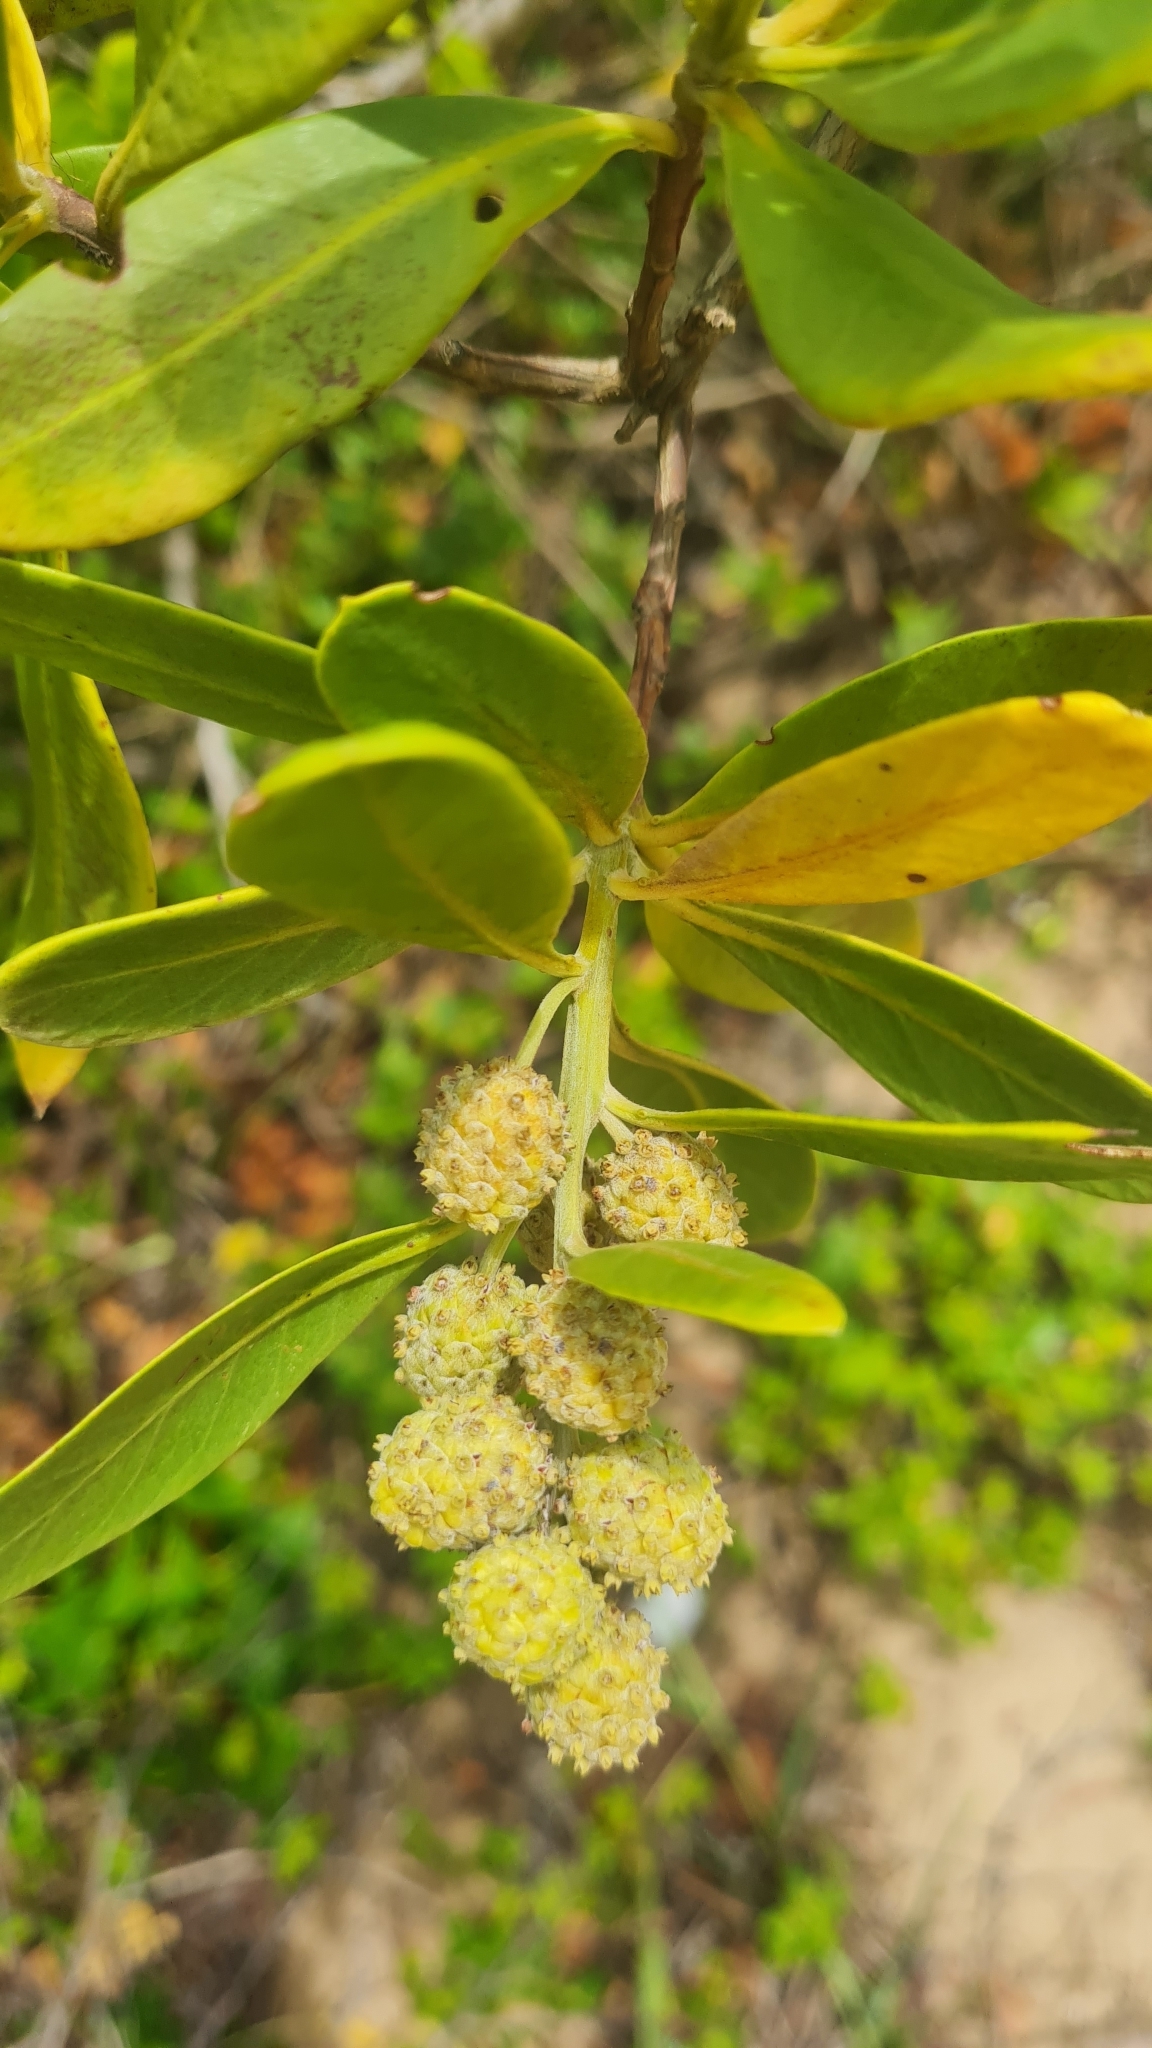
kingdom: Plantae
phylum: Tracheophyta
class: Magnoliopsida
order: Myrtales
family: Combretaceae
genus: Conocarpus
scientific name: Conocarpus erectus
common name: Button mangrove
